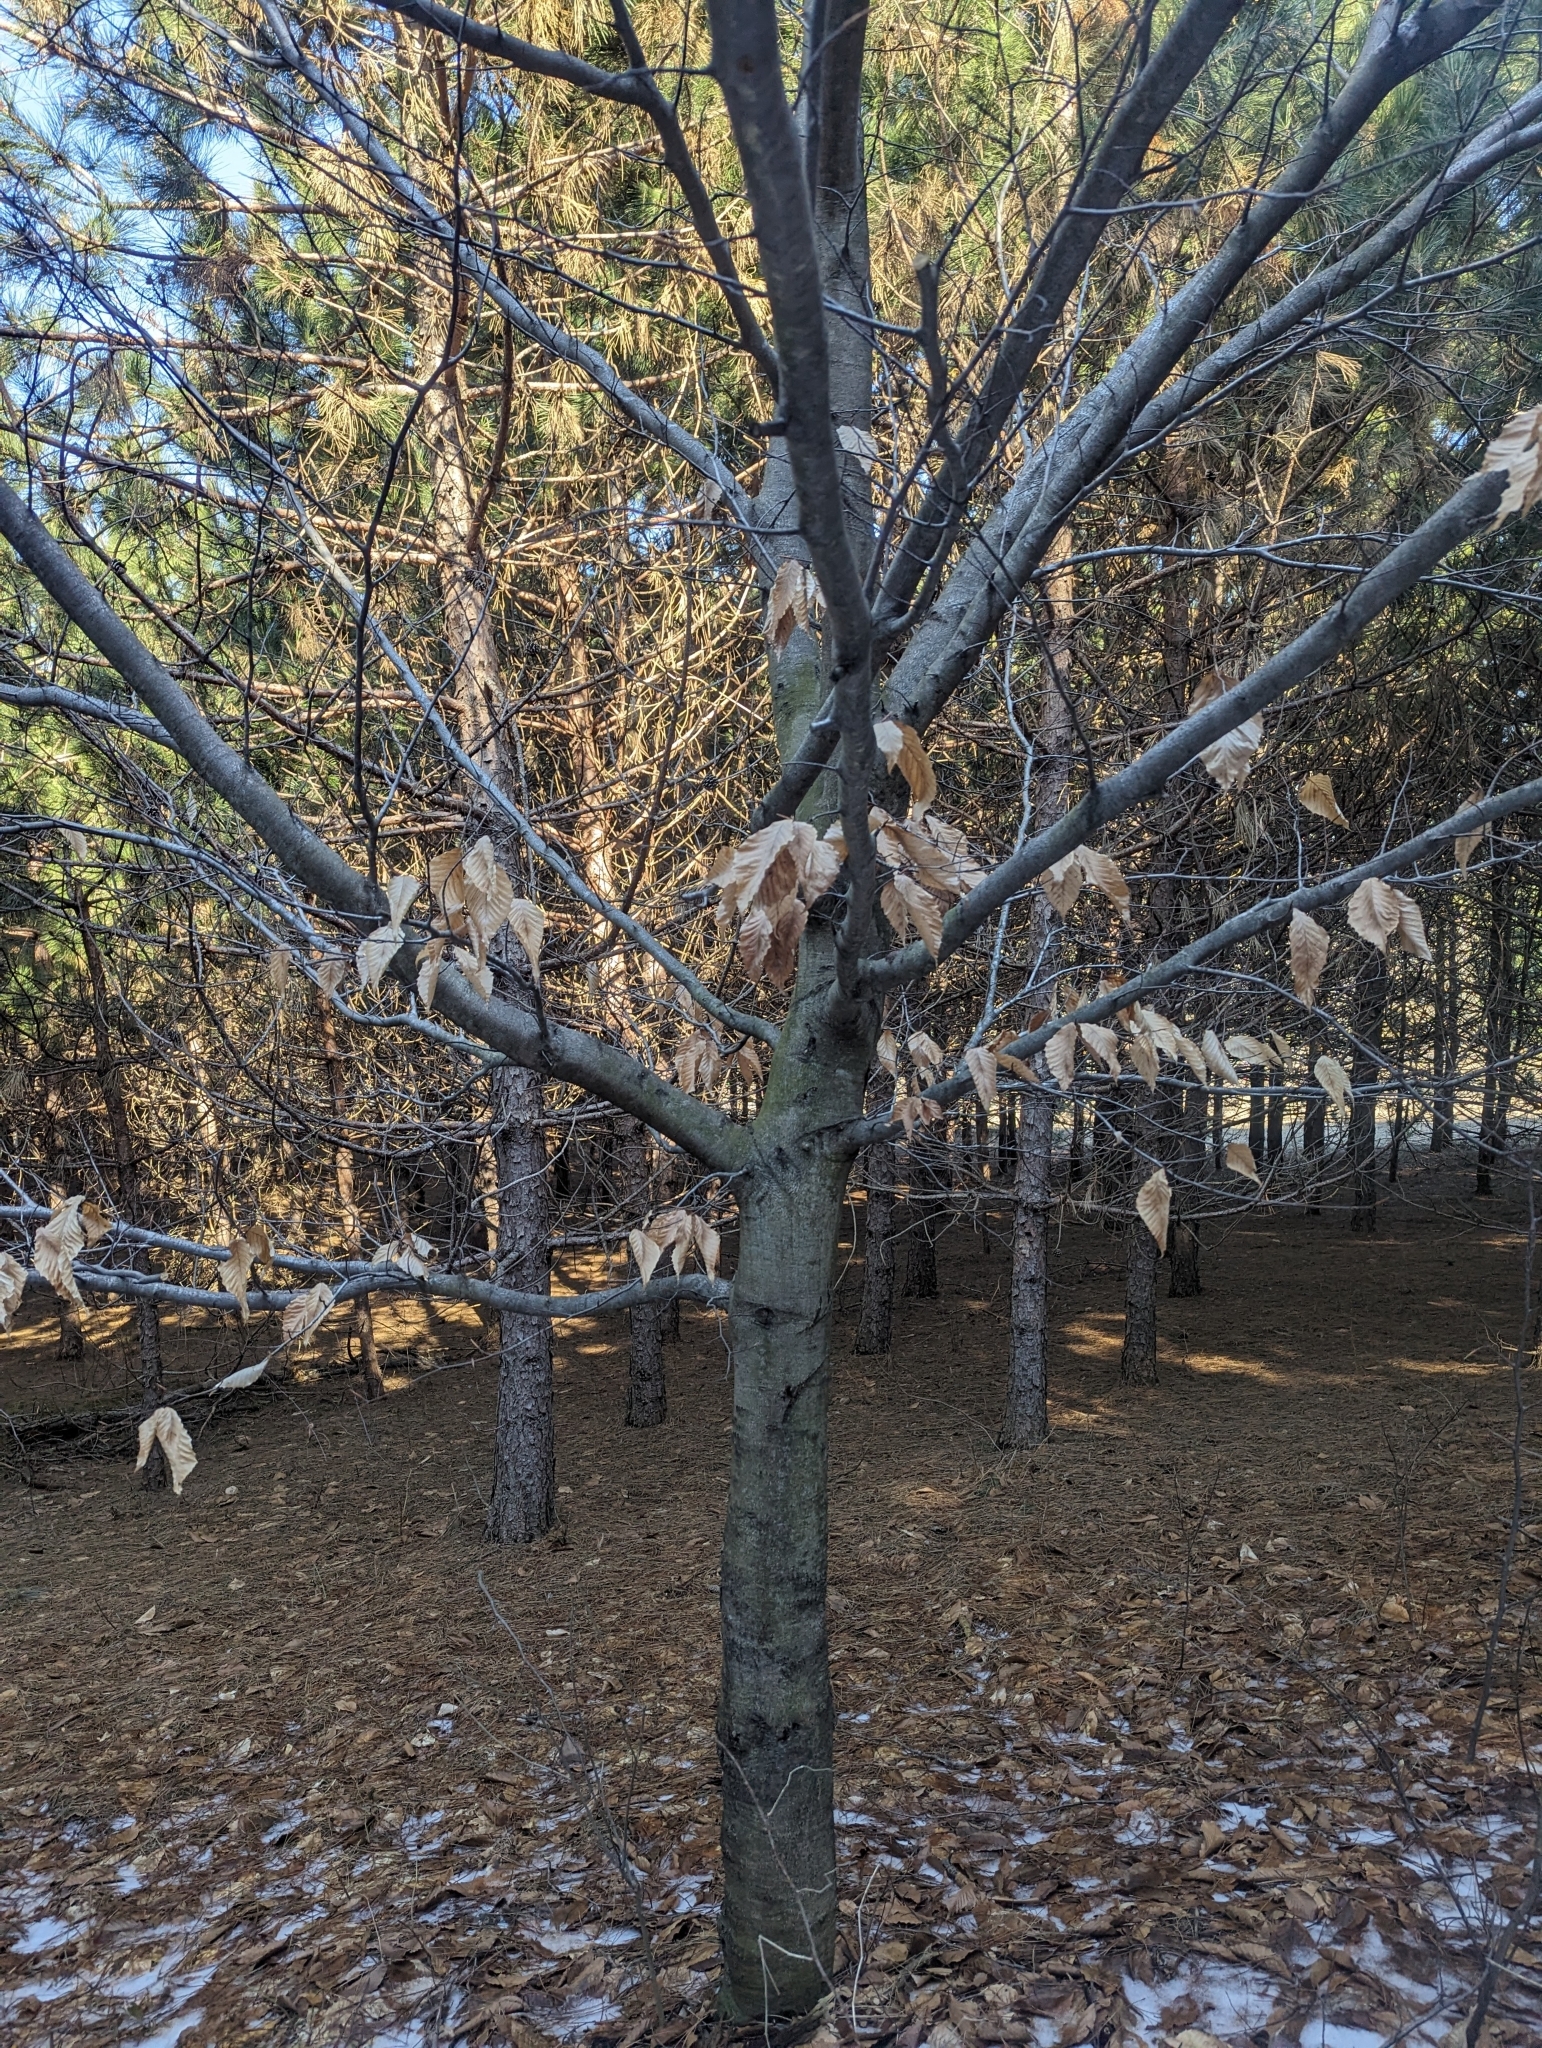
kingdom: Plantae
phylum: Tracheophyta
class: Magnoliopsida
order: Fagales
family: Fagaceae
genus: Fagus
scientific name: Fagus grandifolia
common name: American beech
